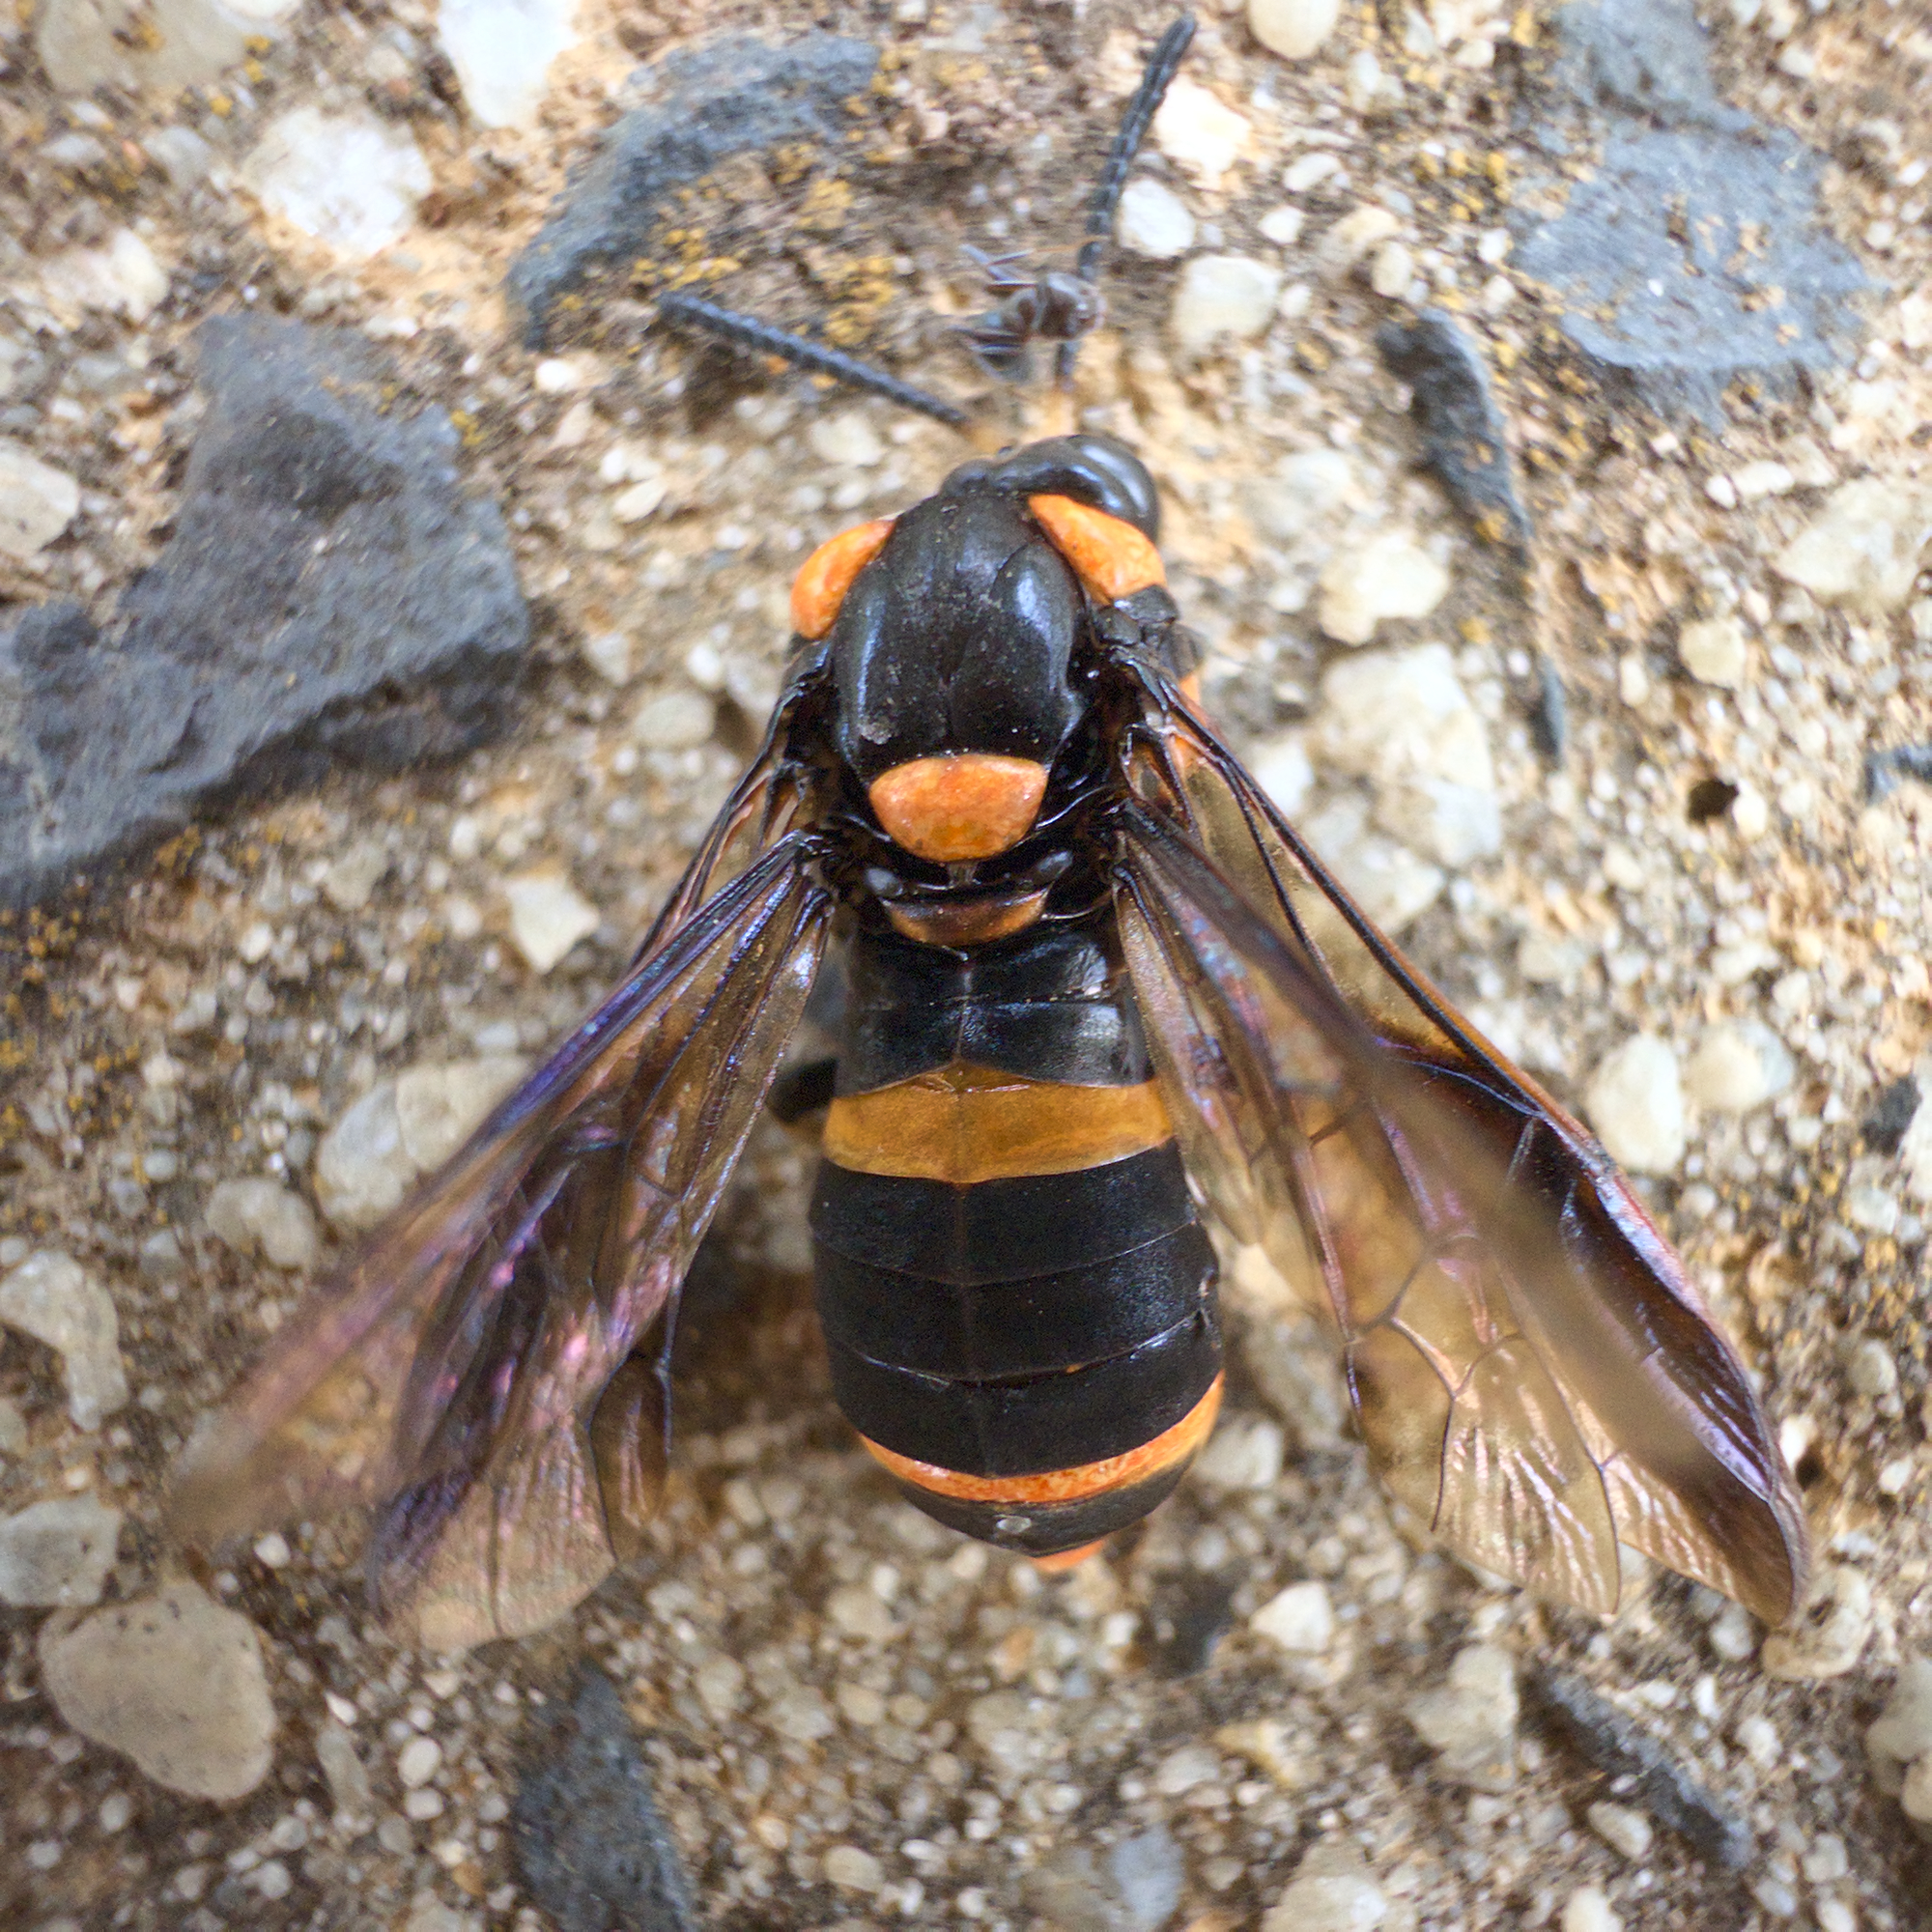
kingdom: Animalia
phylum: Arthropoda
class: Insecta
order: Hymenoptera
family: Pergidae
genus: Pterygophorus
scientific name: Pterygophorus
